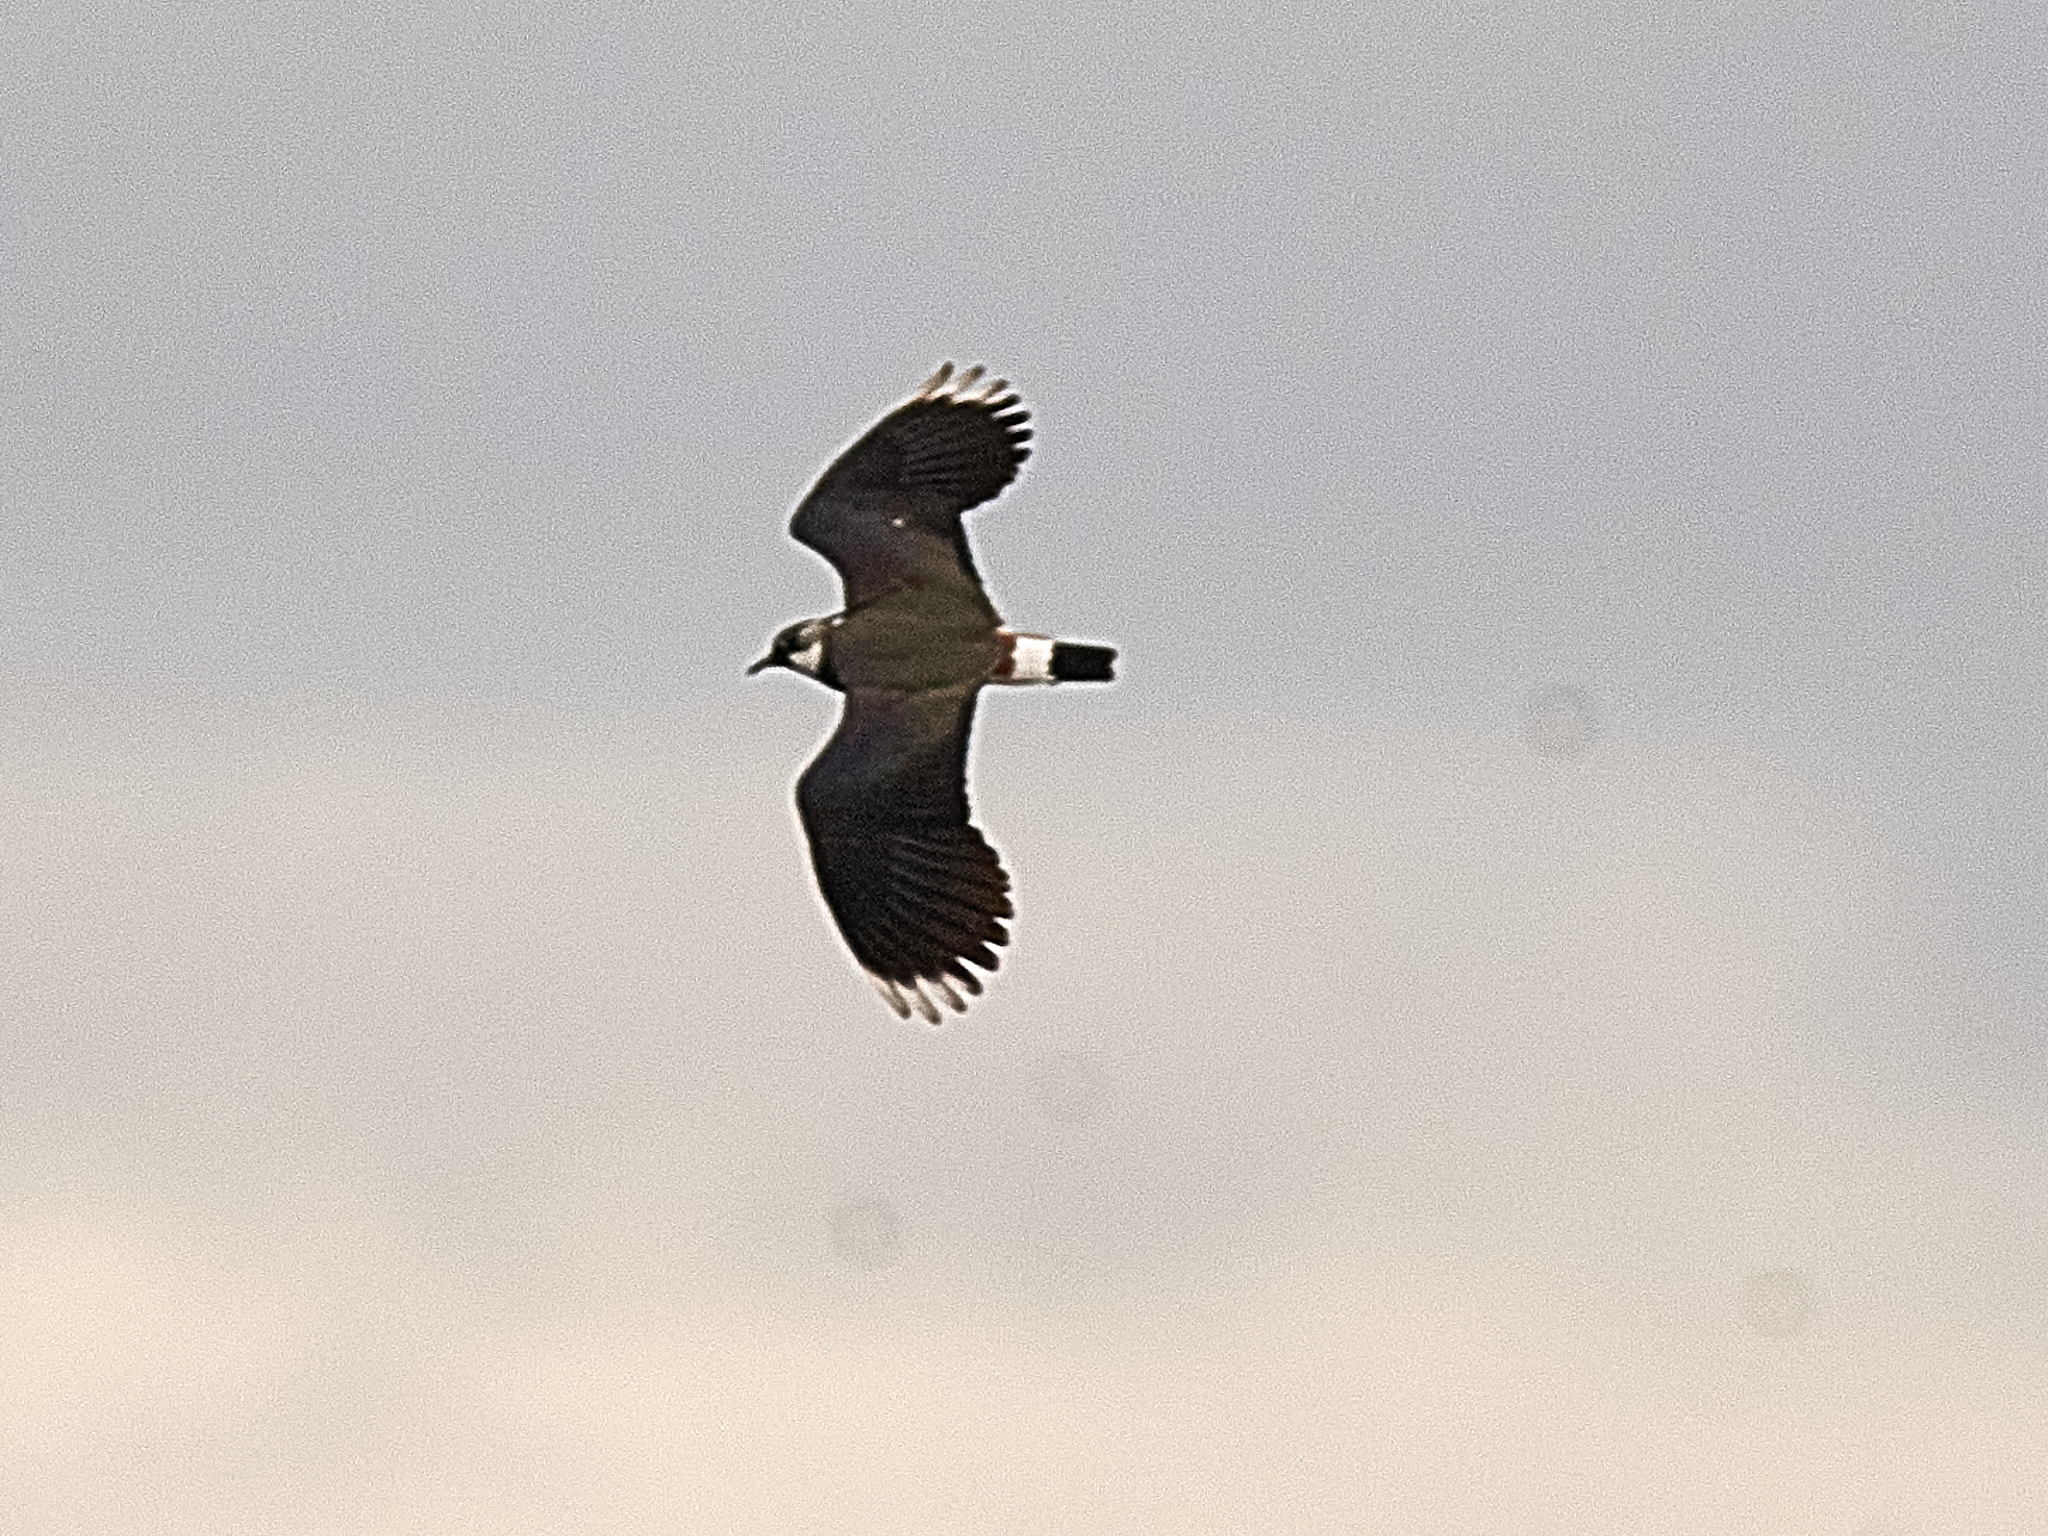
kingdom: Animalia
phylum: Chordata
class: Aves
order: Charadriiformes
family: Charadriidae
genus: Vanellus
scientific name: Vanellus vanellus
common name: Northern lapwing
